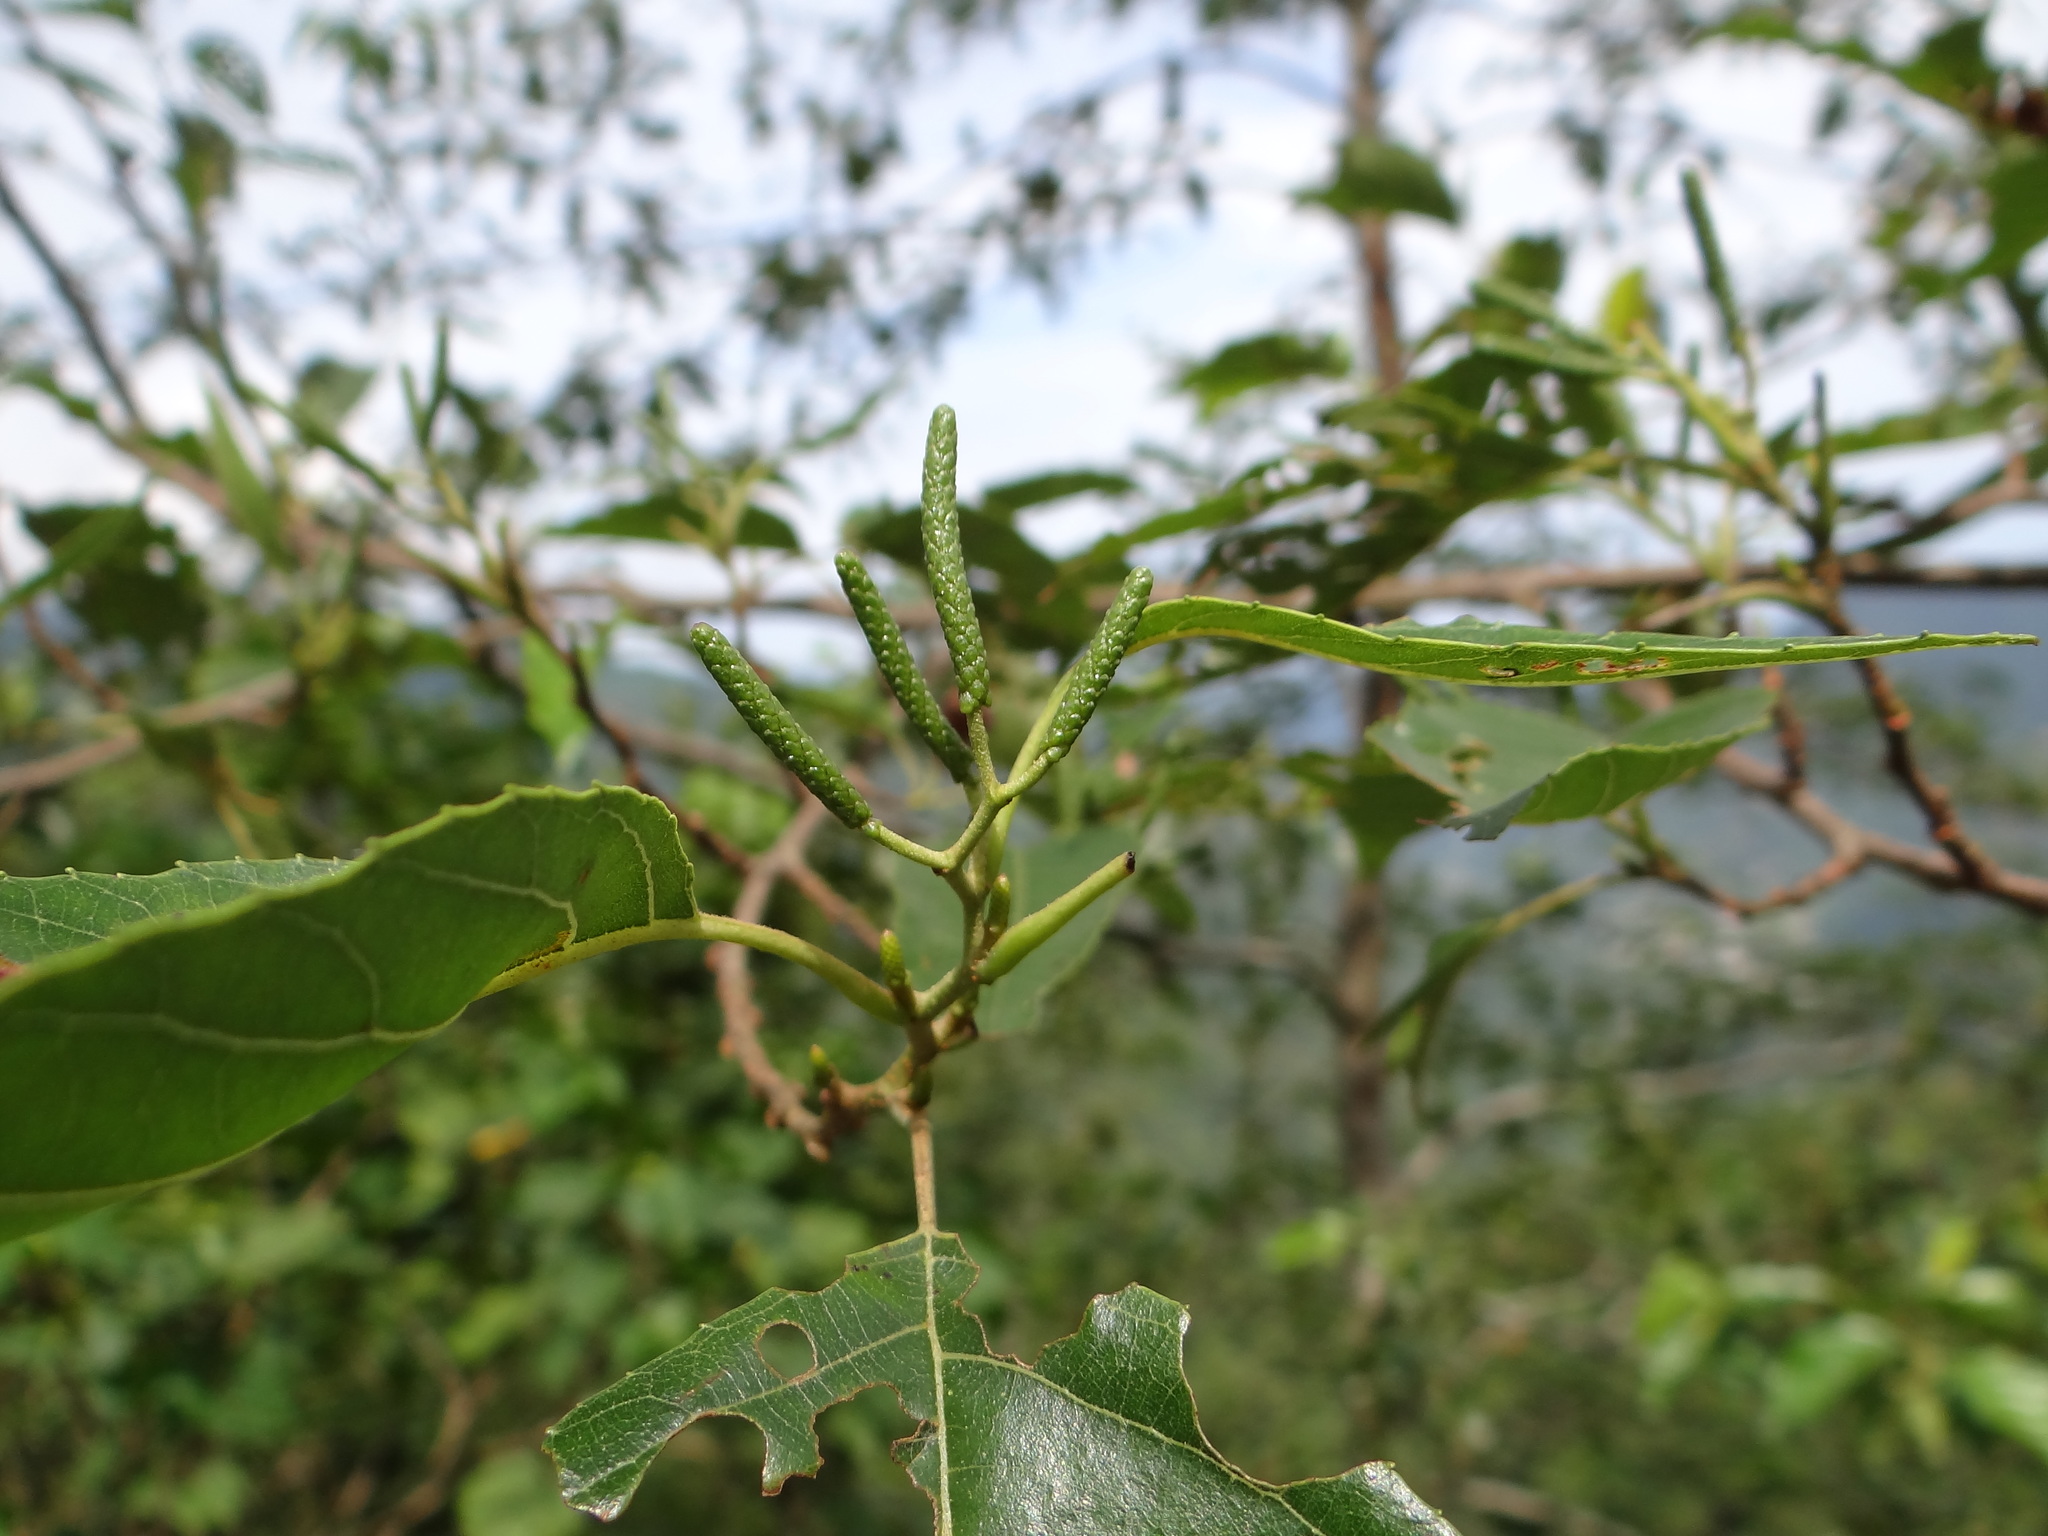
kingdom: Plantae
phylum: Tracheophyta
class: Magnoliopsida
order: Fagales
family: Betulaceae
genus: Alnus
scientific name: Alnus formosana
